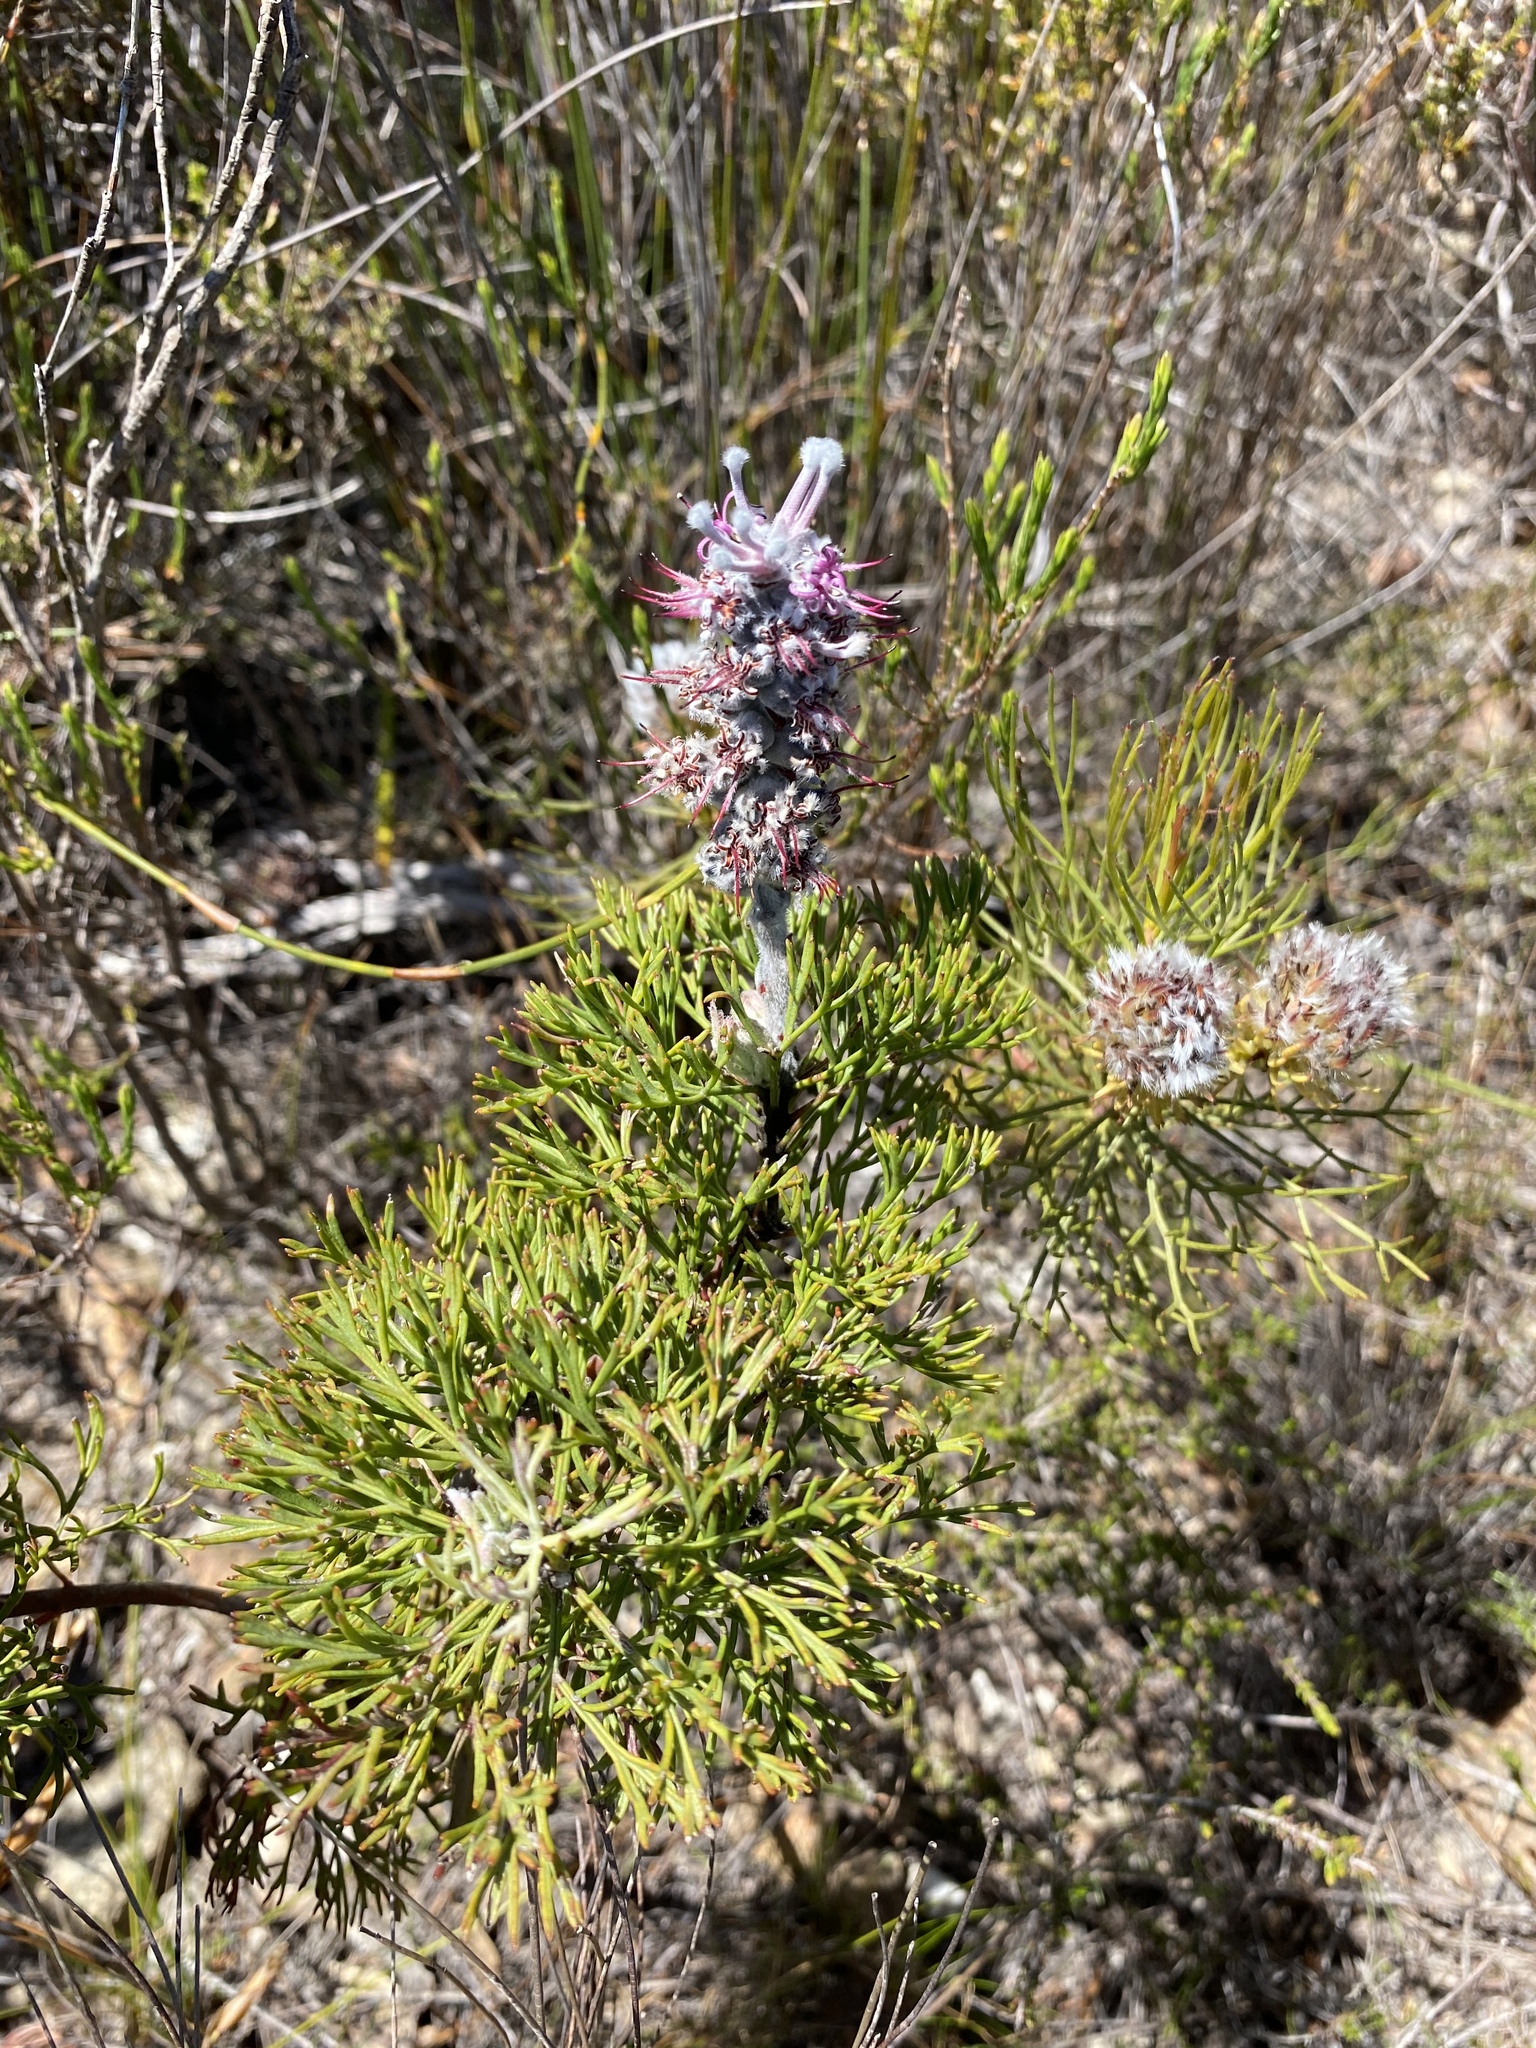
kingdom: Plantae
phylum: Tracheophyta
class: Magnoliopsida
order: Proteales
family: Proteaceae
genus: Paranomus
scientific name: Paranomus bolusii
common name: Overberg sceptre
